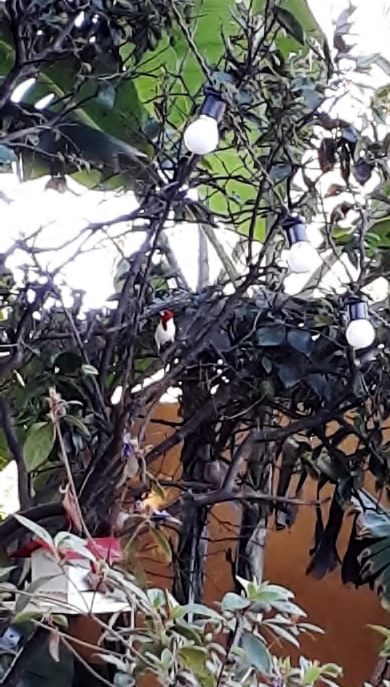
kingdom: Animalia
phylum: Chordata
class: Aves
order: Passeriformes
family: Thraupidae
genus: Paroaria
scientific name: Paroaria dominicana
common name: Red-cowled cardinal
